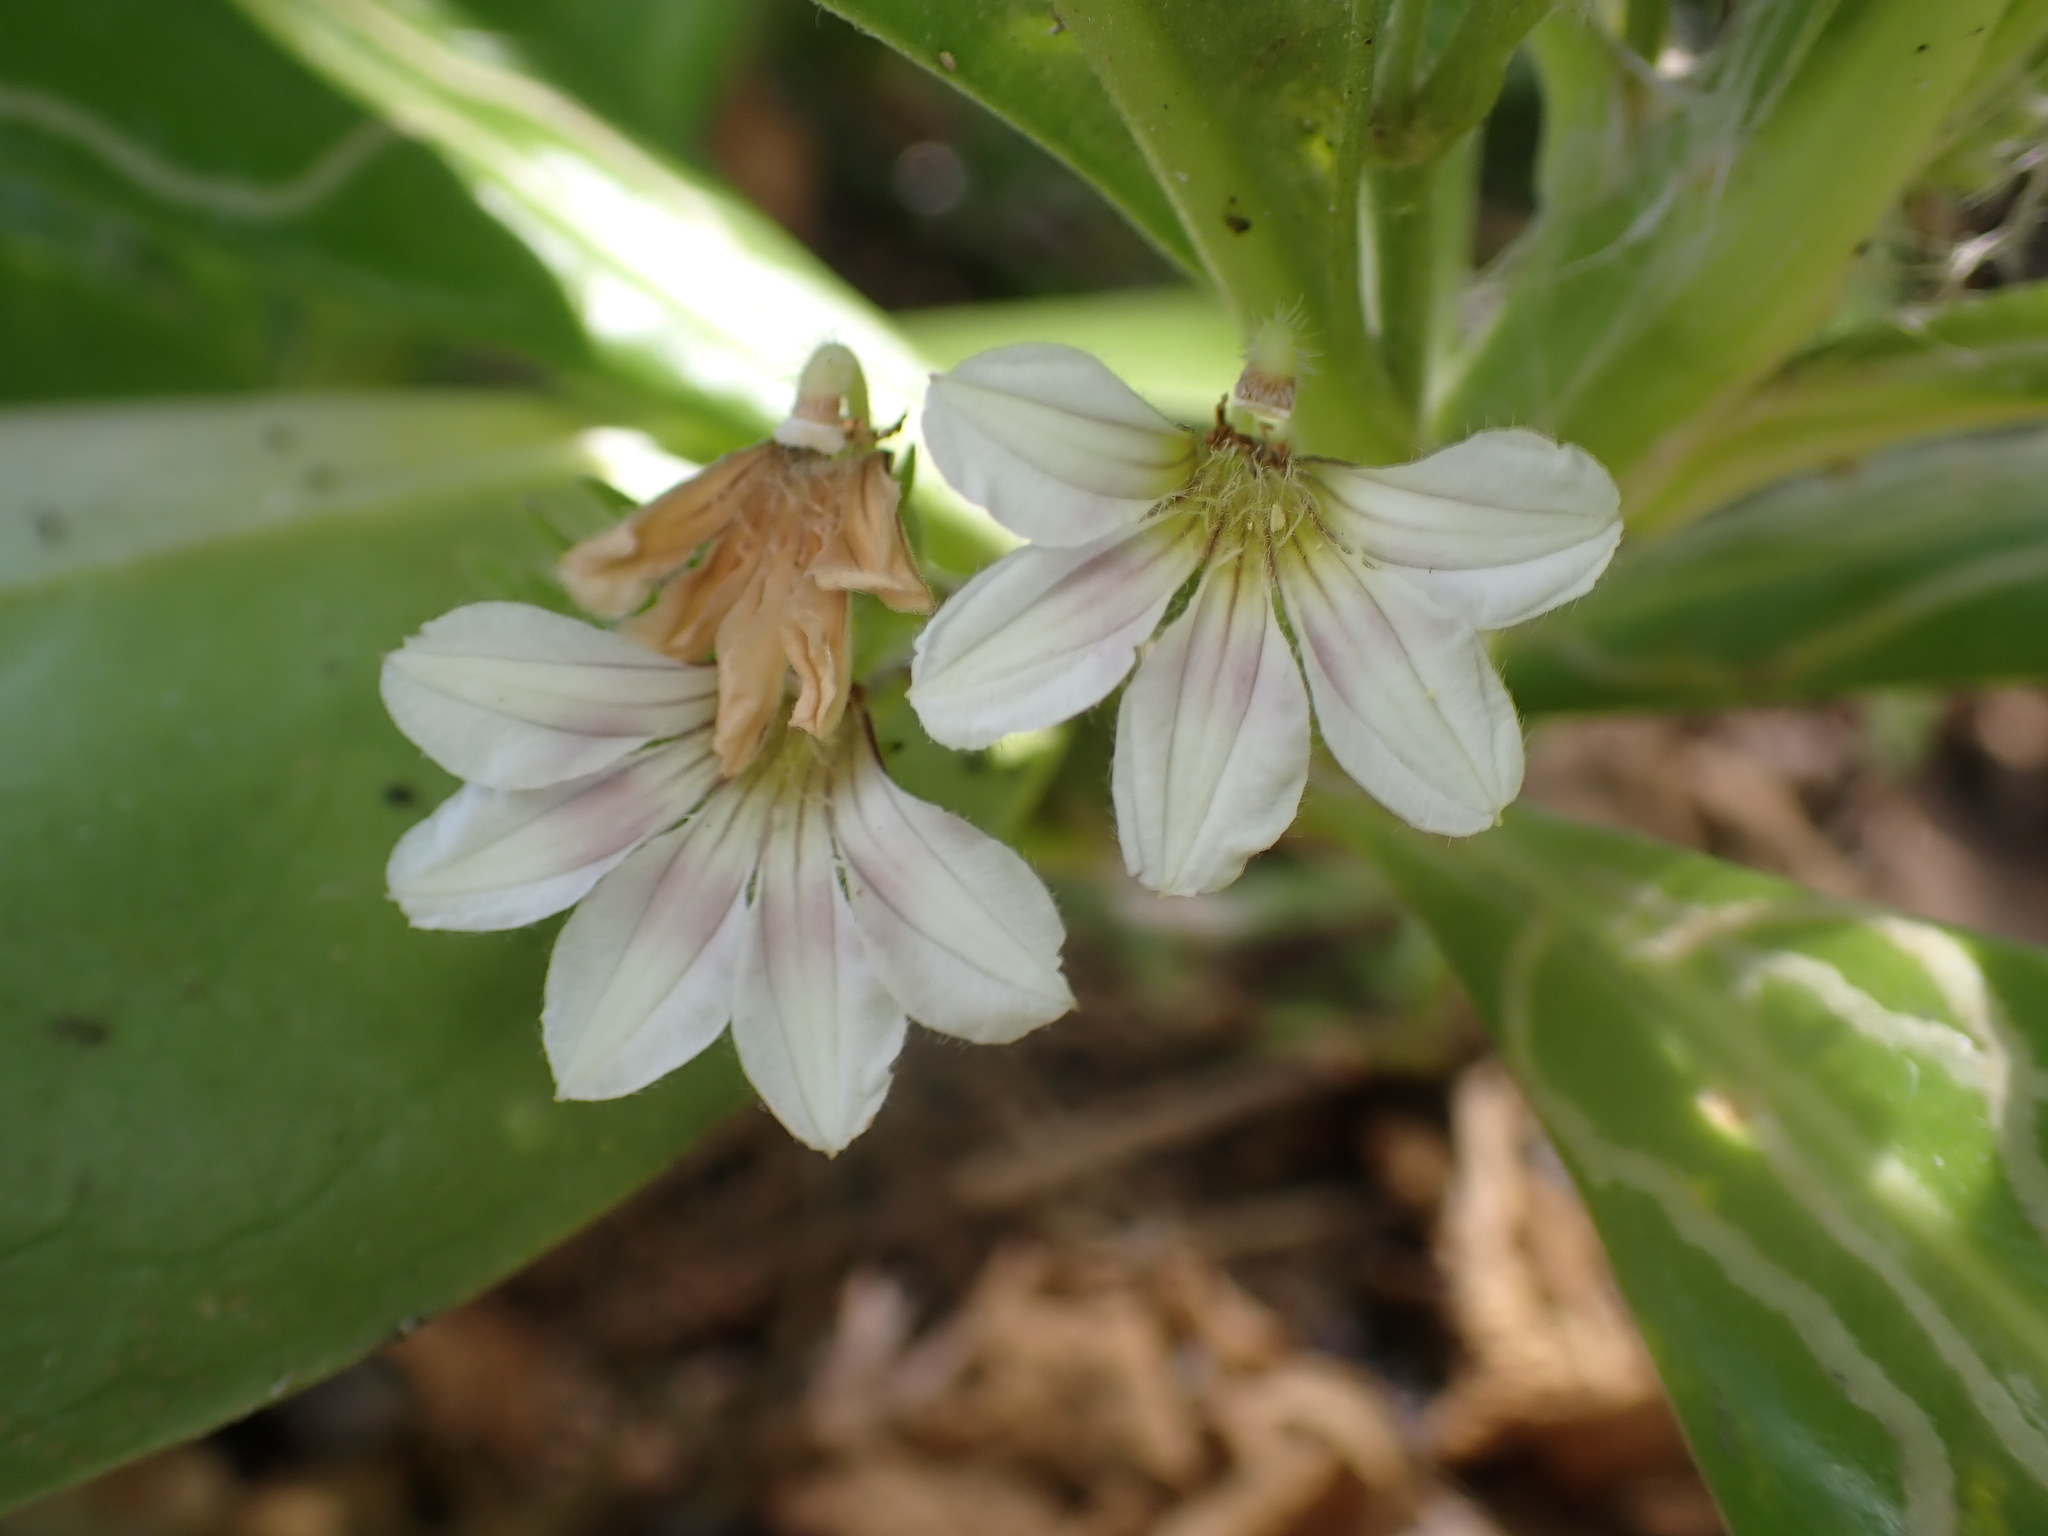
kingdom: Plantae
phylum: Tracheophyta
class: Magnoliopsida
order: Asterales
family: Goodeniaceae
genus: Scaevola
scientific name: Scaevola taccada
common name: Sea lettucetree
